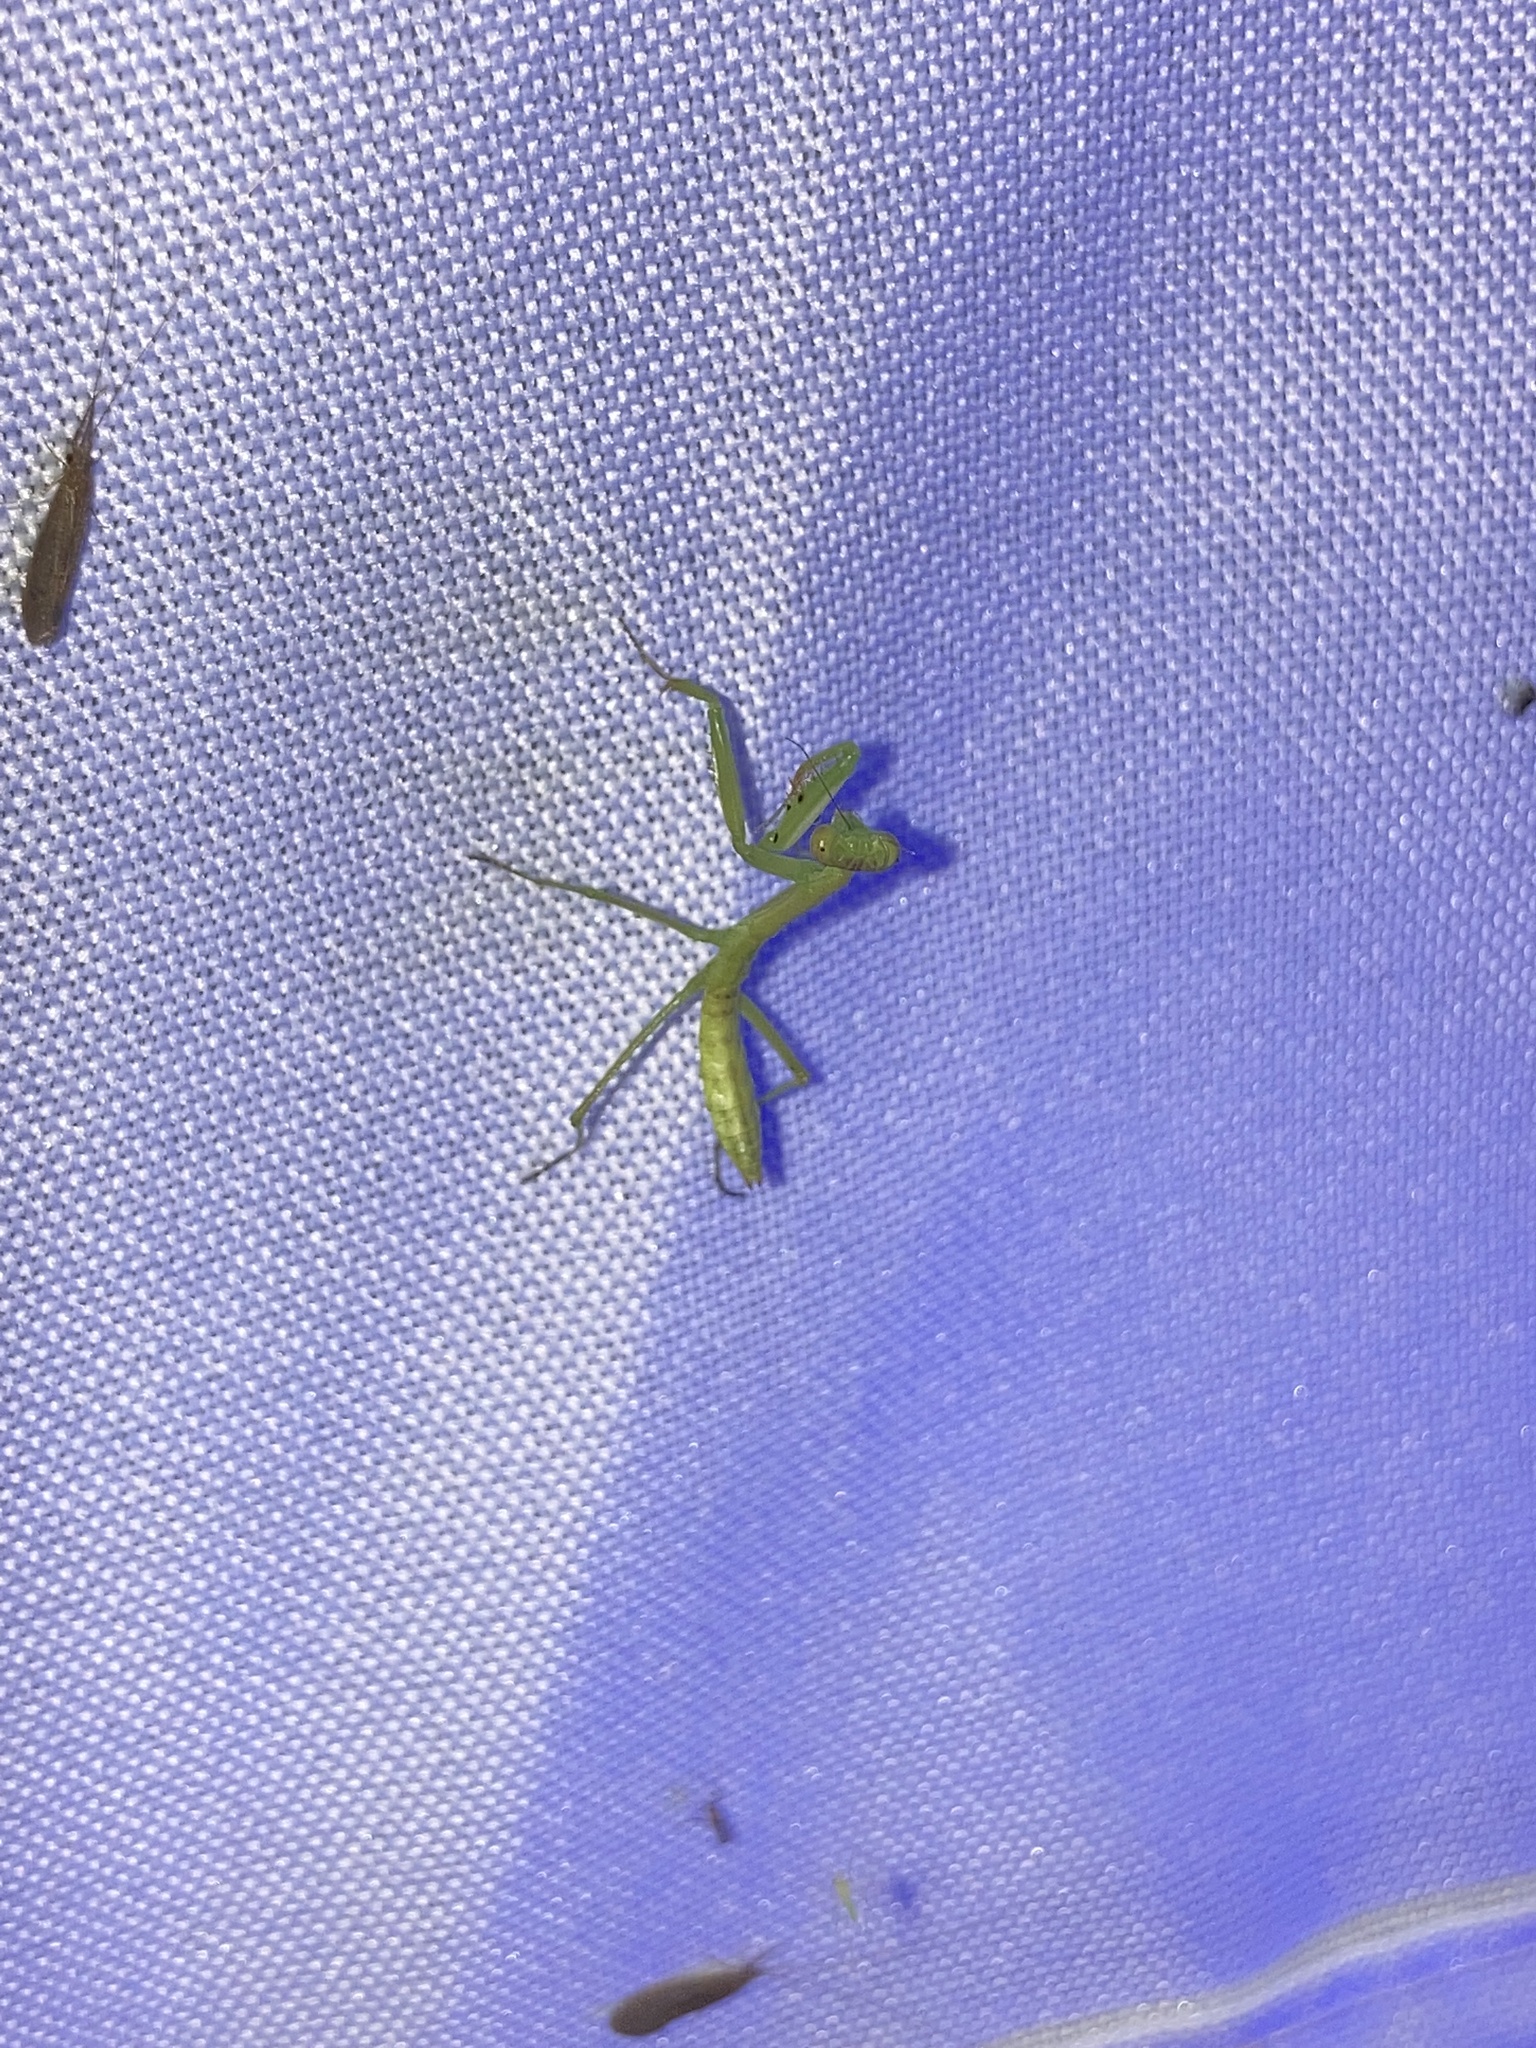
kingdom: Animalia
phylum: Arthropoda
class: Insecta
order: Mantodea
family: Mantidae
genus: Stagmomantis
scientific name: Stagmomantis carolina
